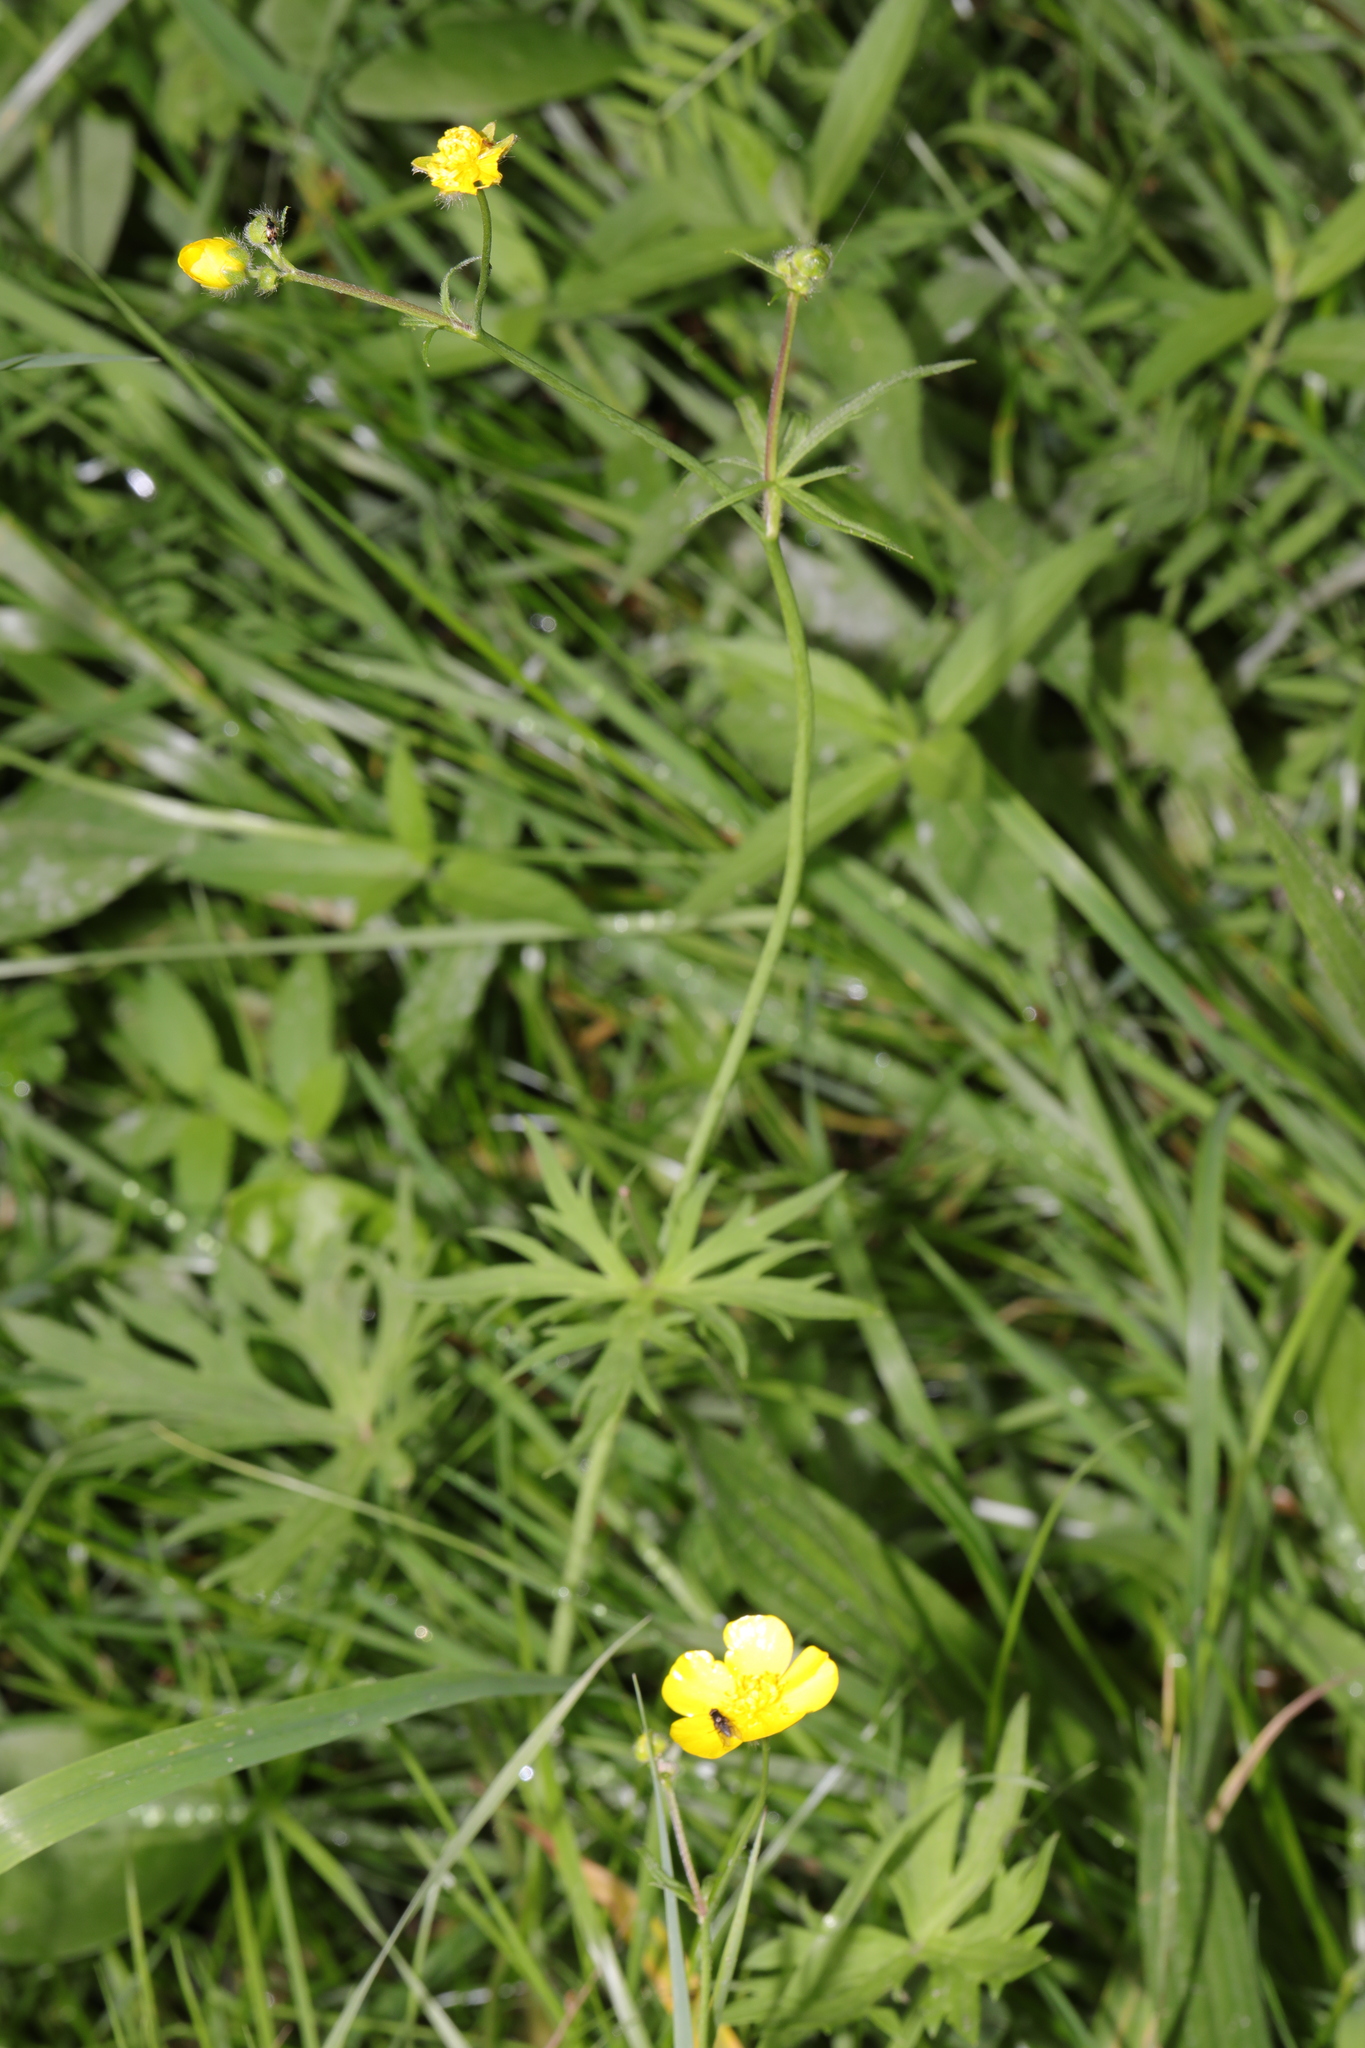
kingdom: Plantae
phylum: Tracheophyta
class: Magnoliopsida
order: Ranunculales
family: Ranunculaceae
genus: Ranunculus
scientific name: Ranunculus acris
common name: Meadow buttercup
